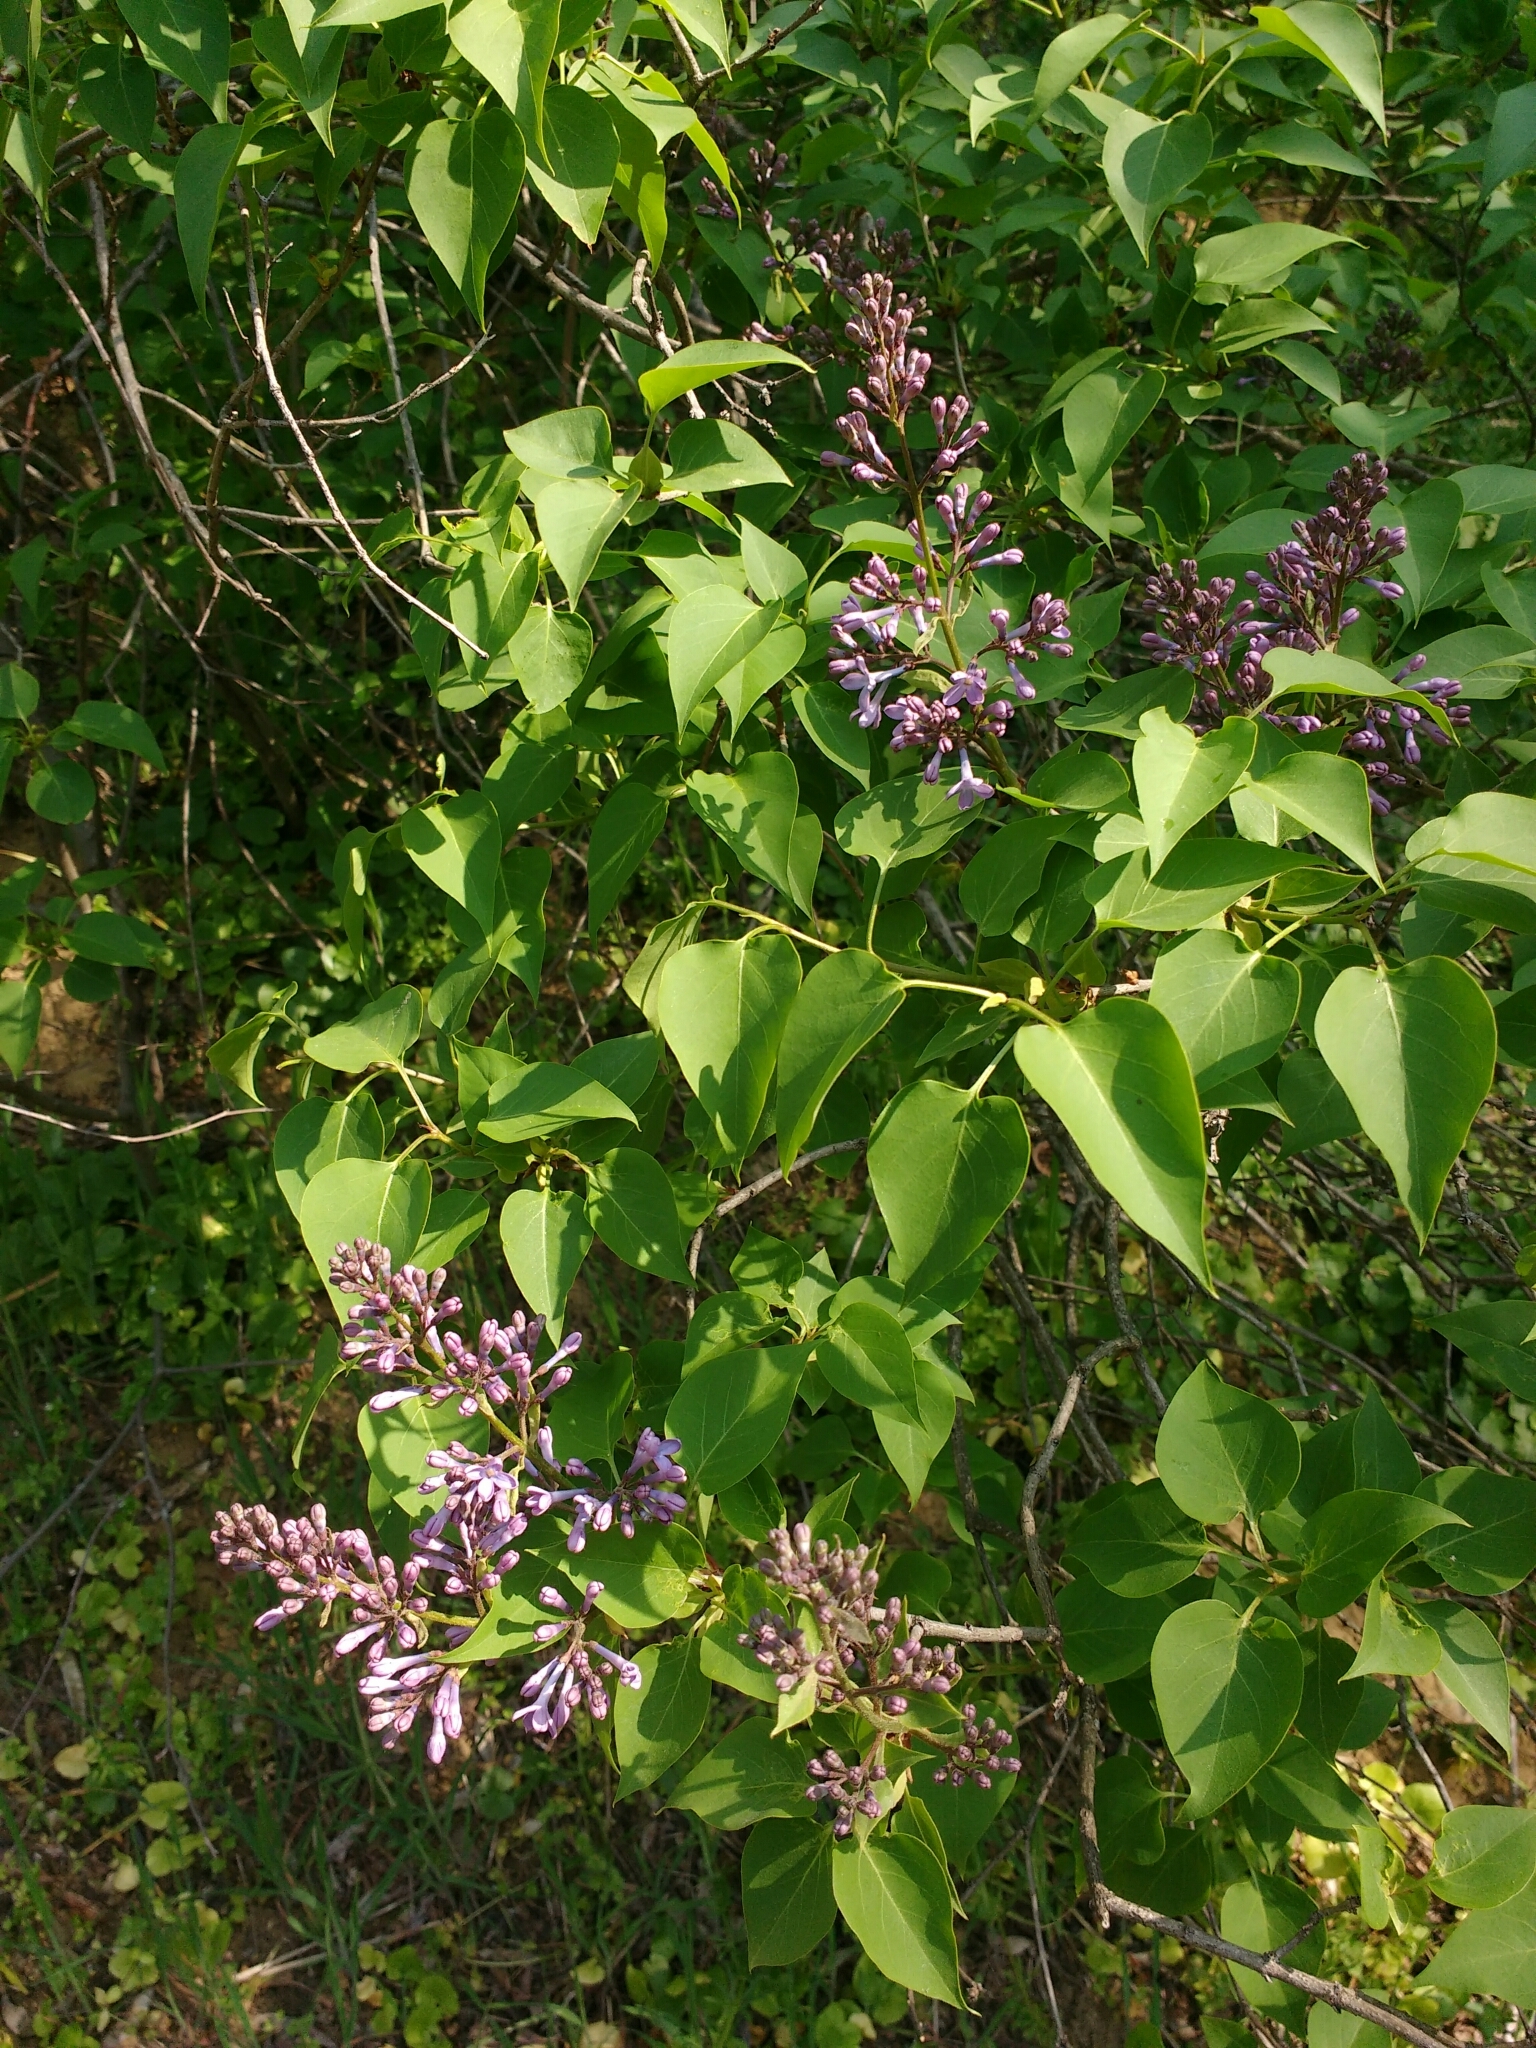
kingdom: Plantae
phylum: Tracheophyta
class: Magnoliopsida
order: Lamiales
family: Oleaceae
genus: Syringa
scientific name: Syringa vulgaris
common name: Common lilac
